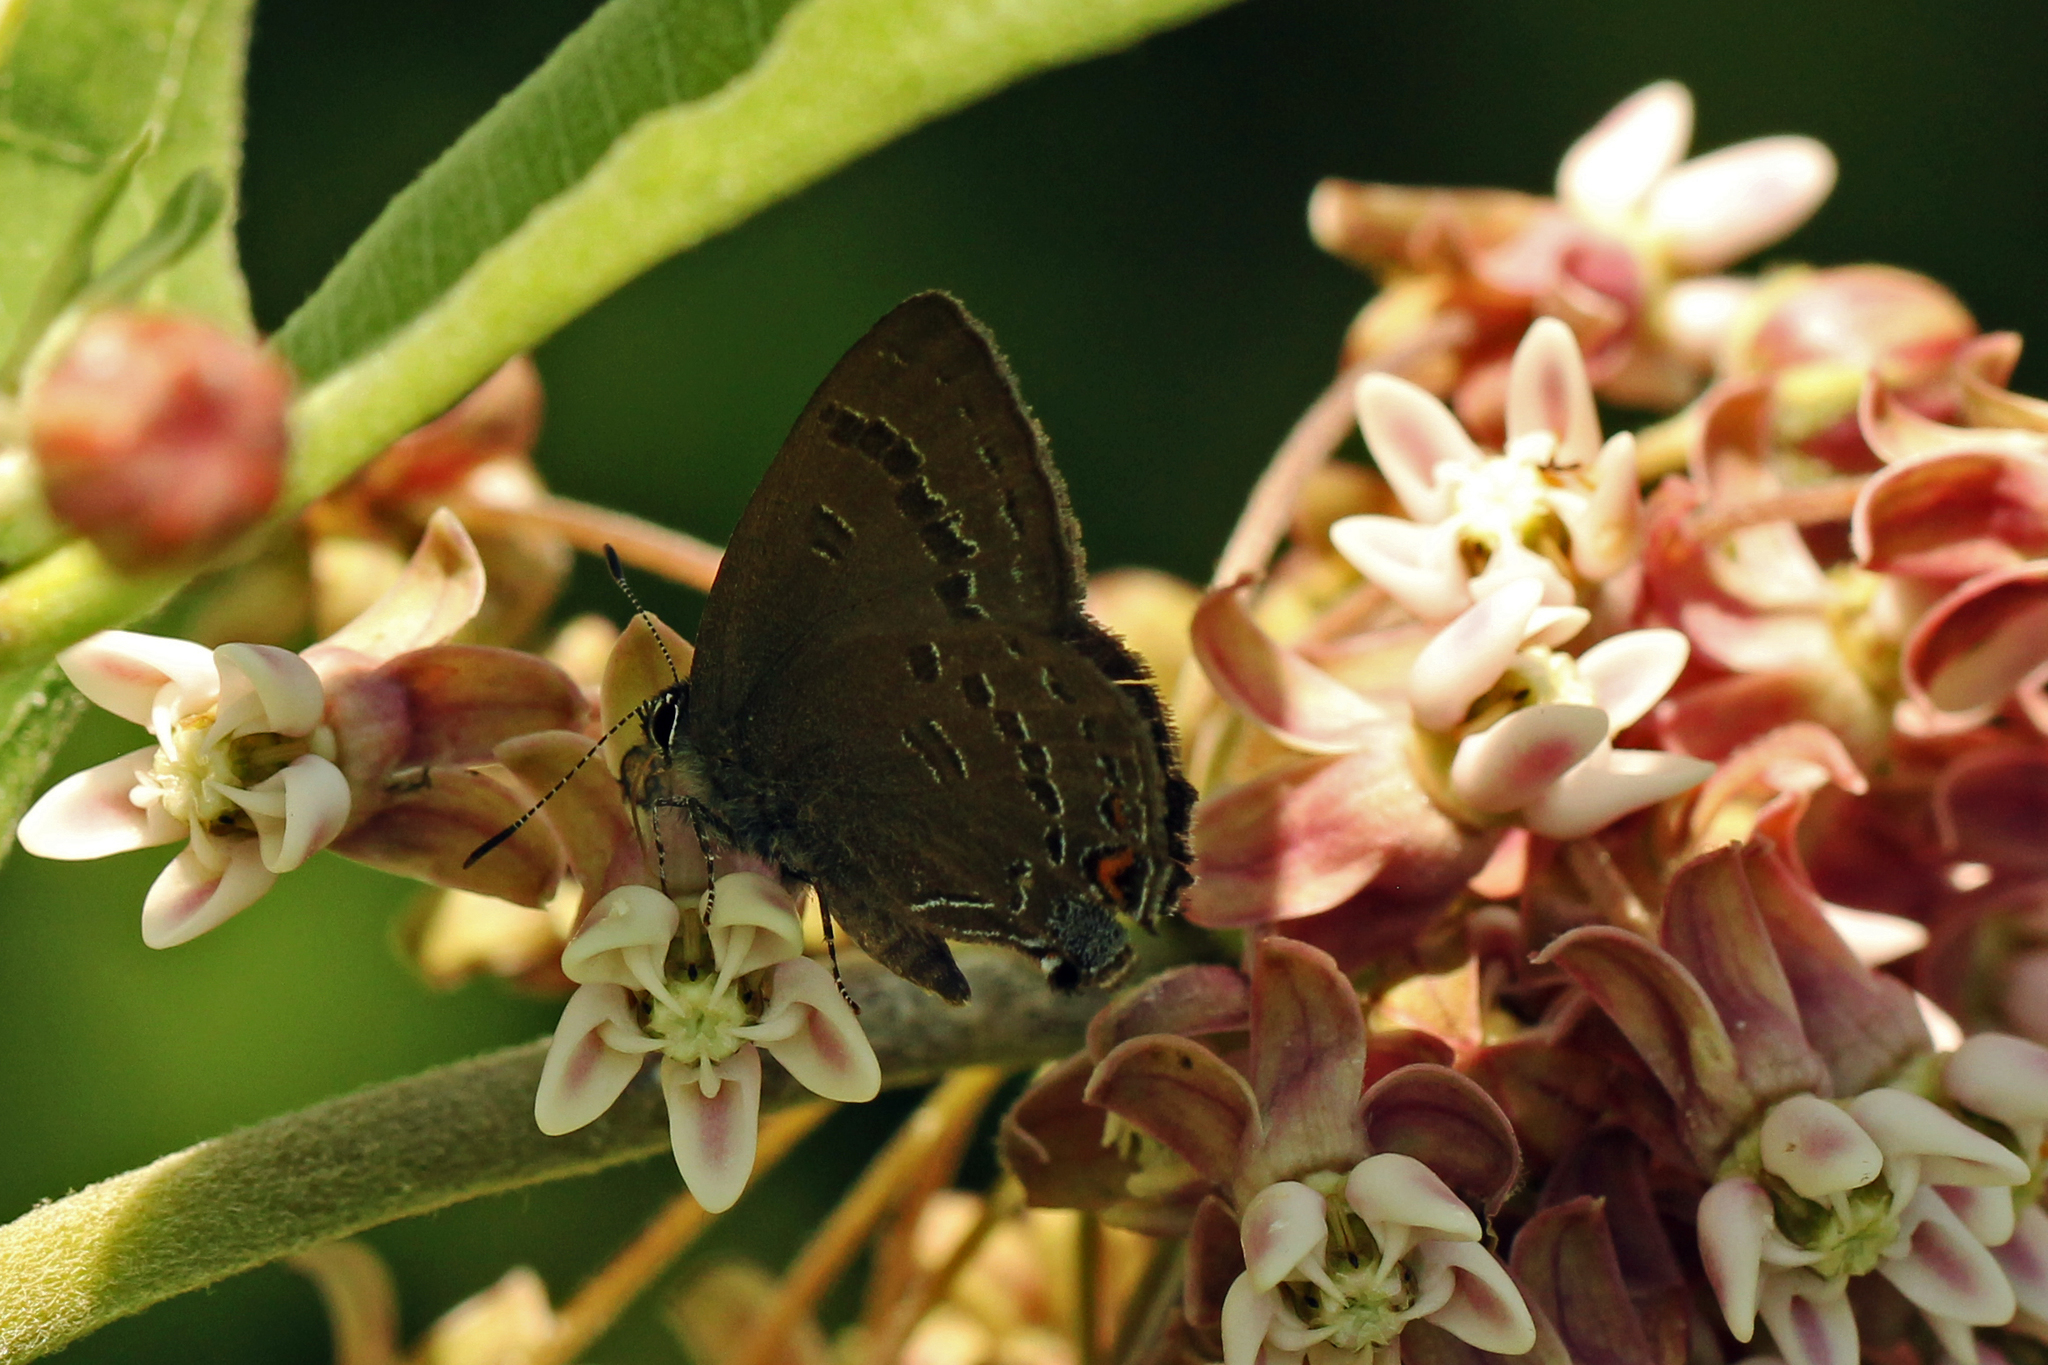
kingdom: Animalia
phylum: Arthropoda
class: Insecta
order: Lepidoptera
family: Lycaenidae
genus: Satyrium
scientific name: Satyrium calanus
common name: Banded hairstreak
